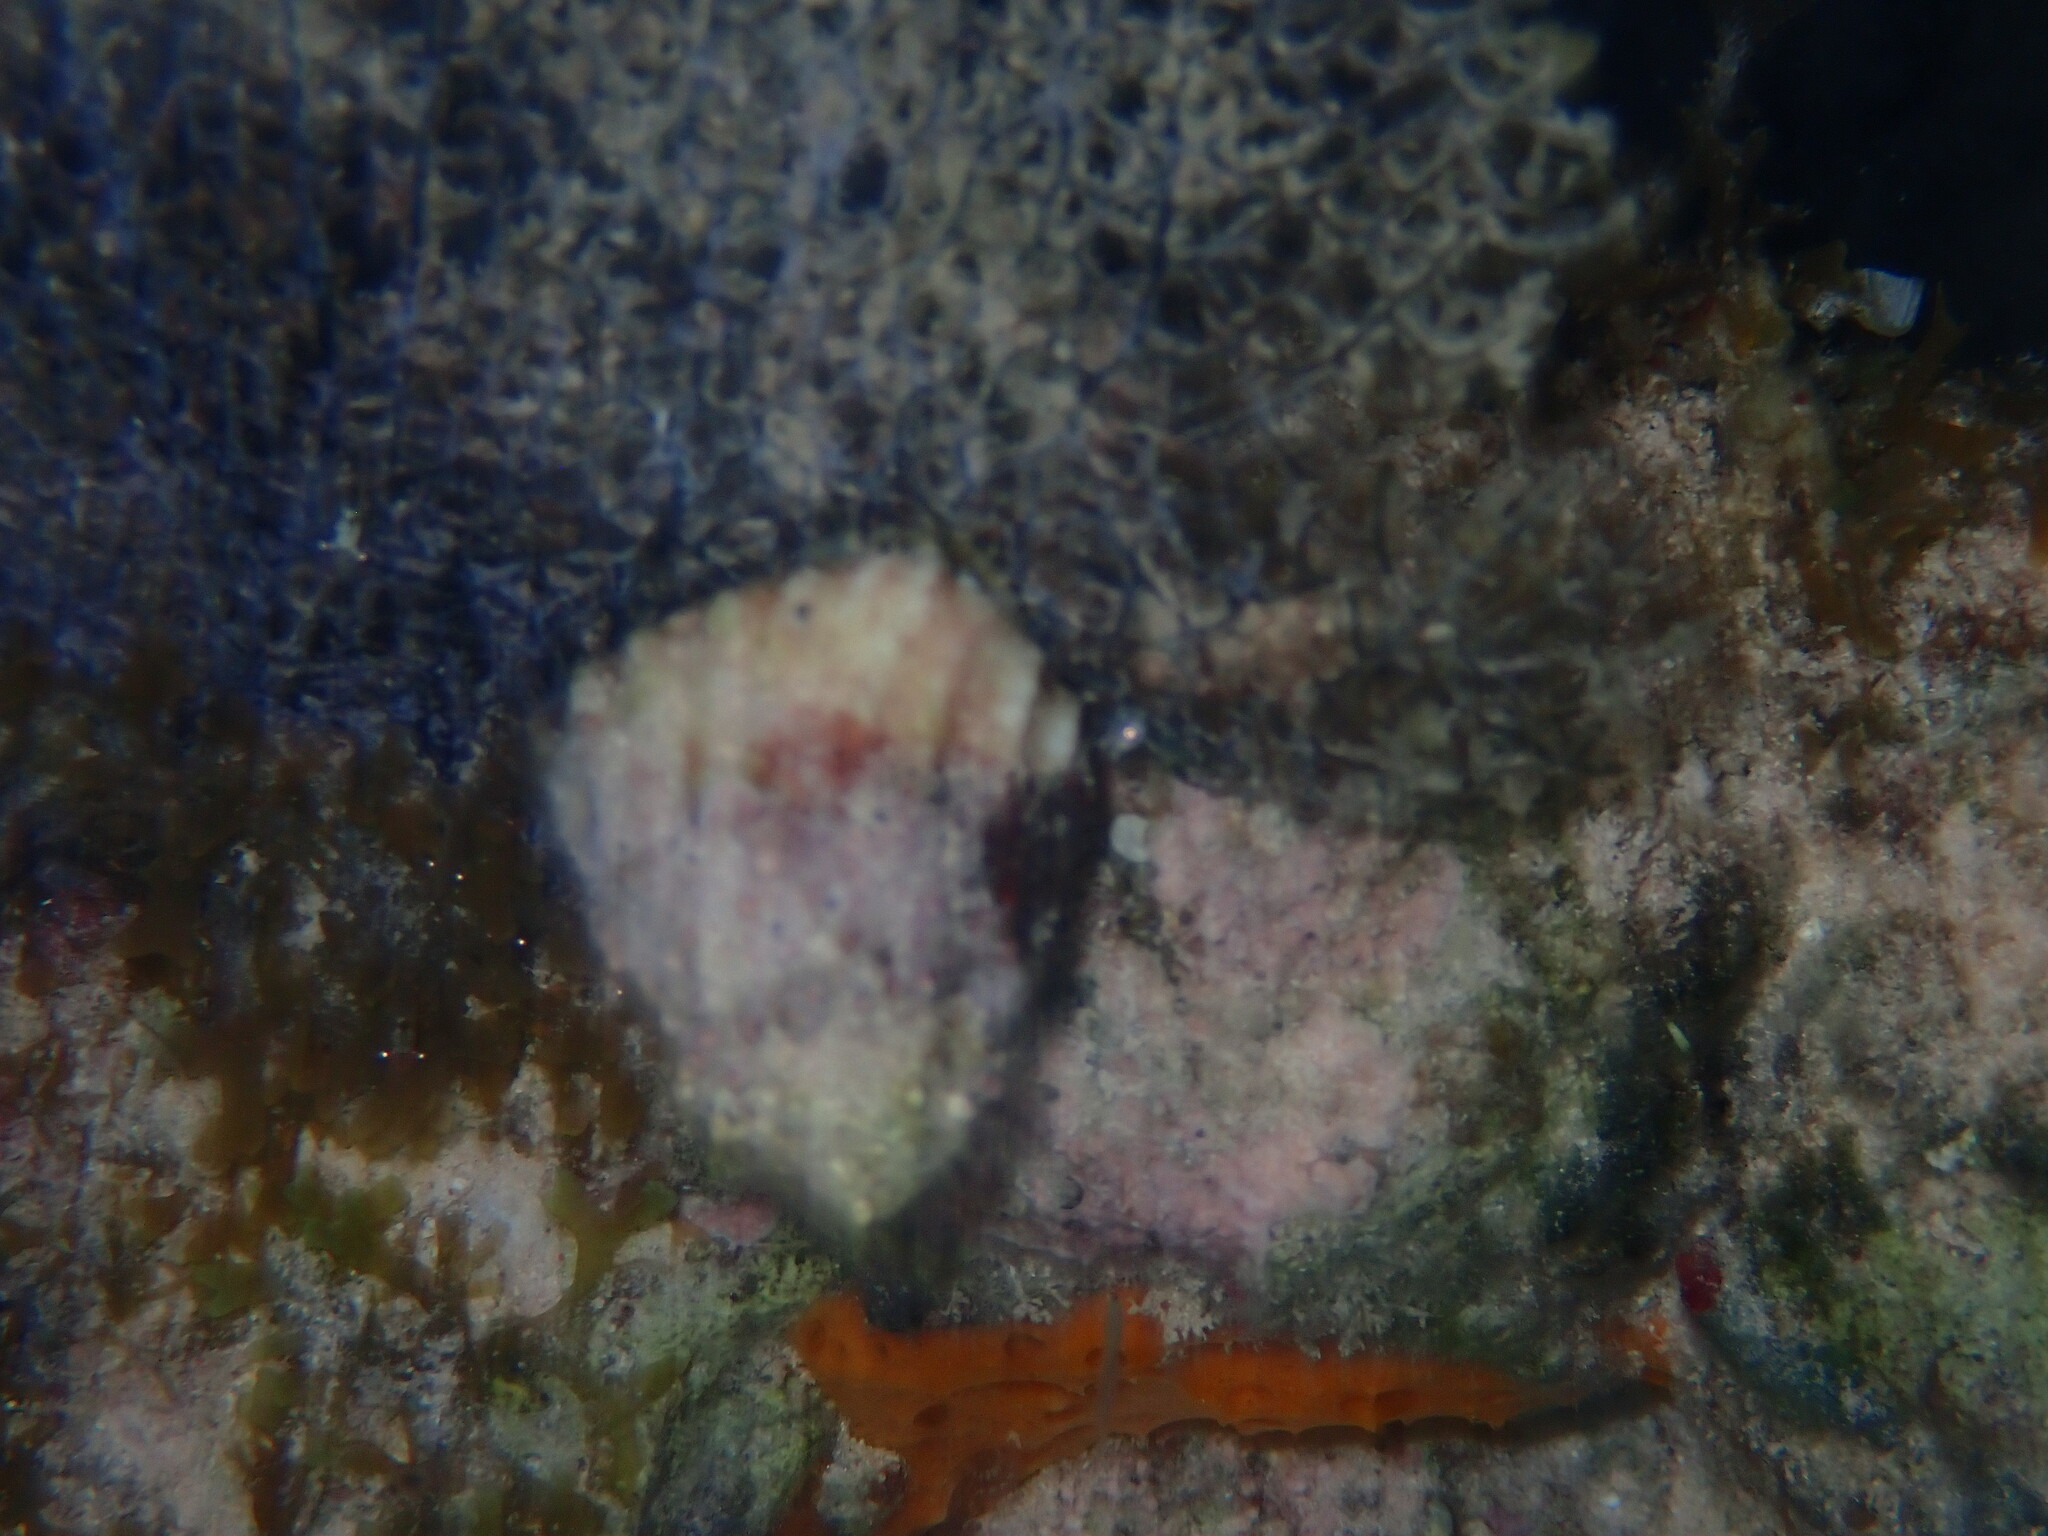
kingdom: Animalia
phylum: Porifera
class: Demospongiae
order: Scopalinida
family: Scopalinidae
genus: Scopalina
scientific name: Scopalina ruetzleri
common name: Orange lumpy encrusting sponge
